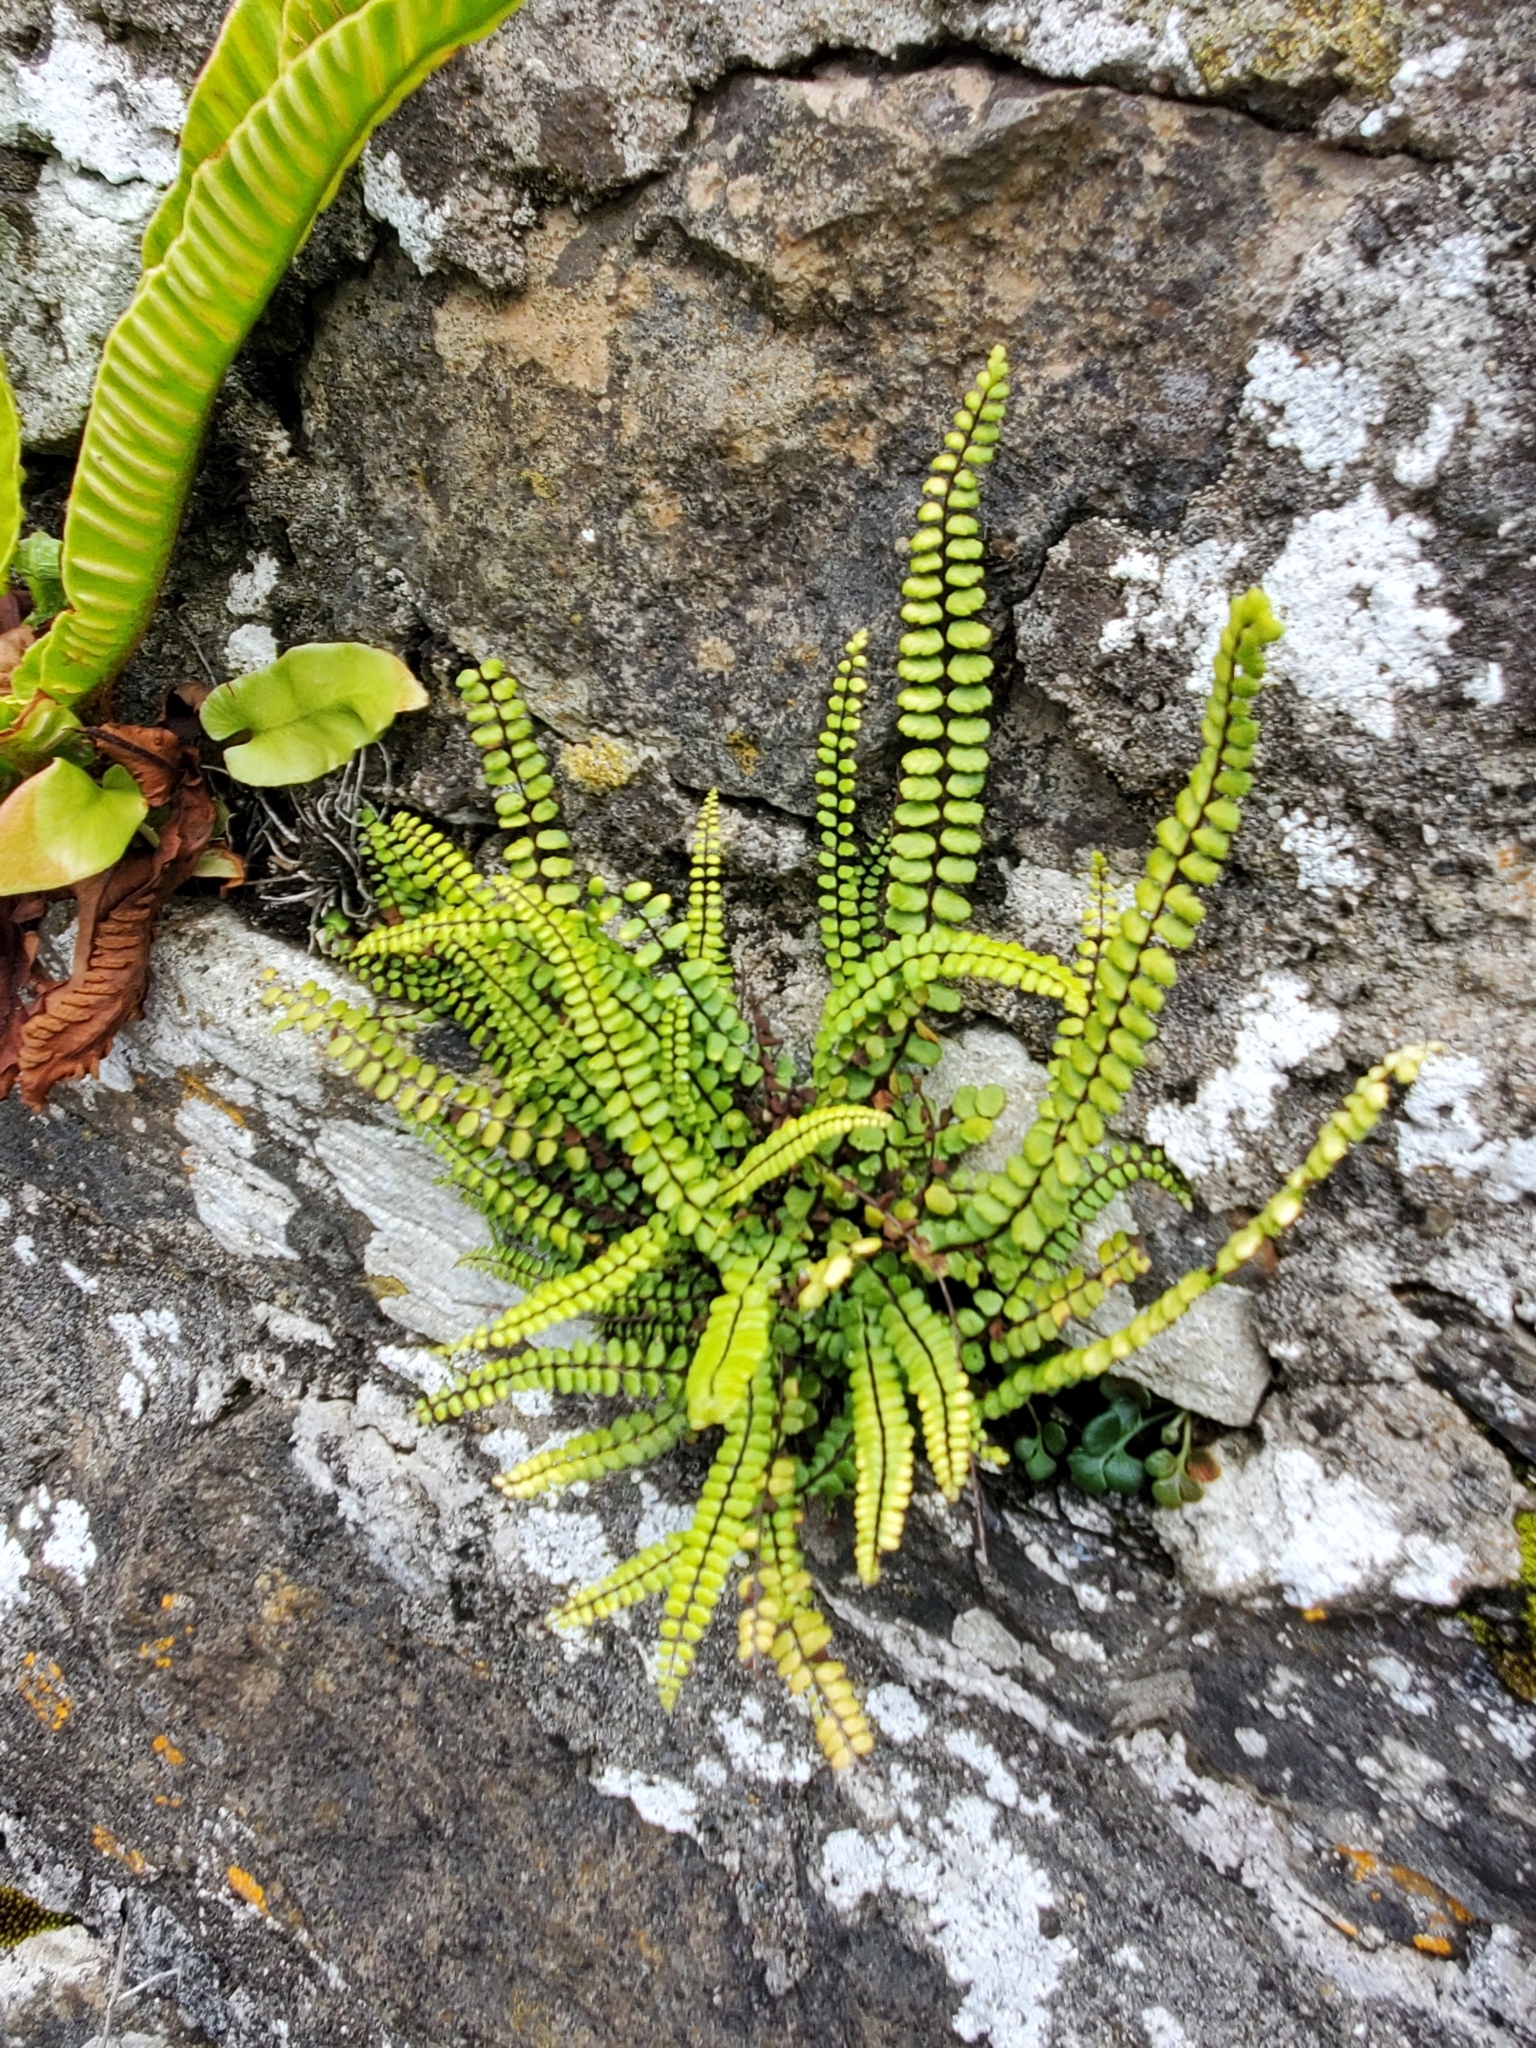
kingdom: Plantae
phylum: Tracheophyta
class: Polypodiopsida
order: Polypodiales
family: Aspleniaceae
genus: Asplenium
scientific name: Asplenium trichomanes
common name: Maidenhair spleenwort
